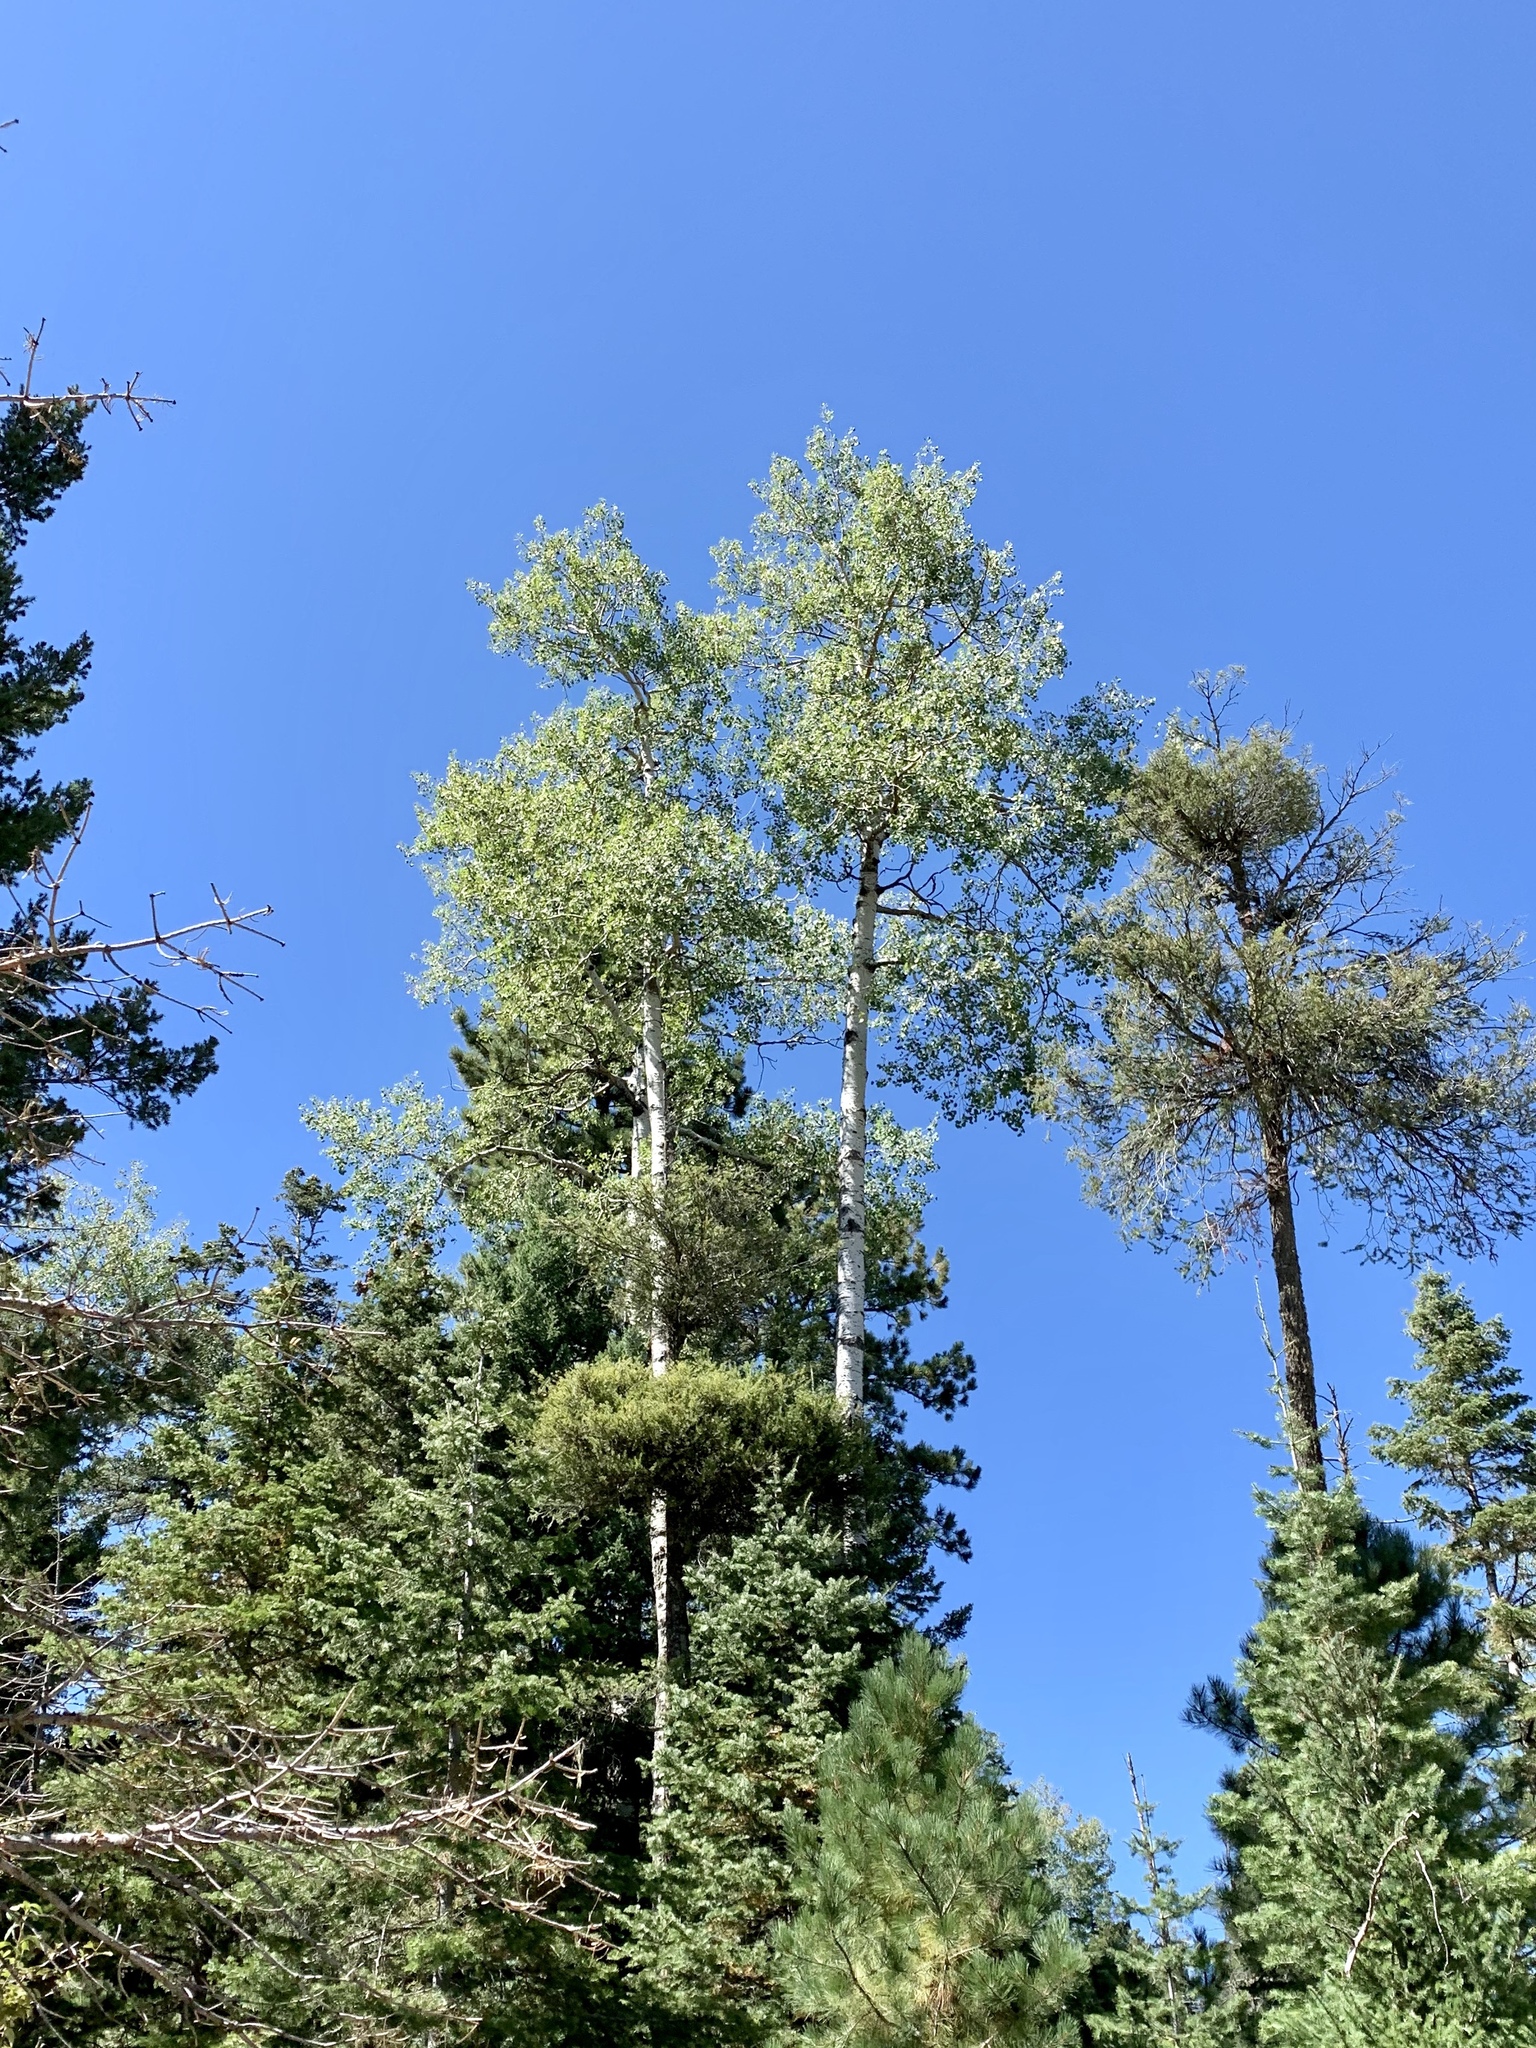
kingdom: Plantae
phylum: Tracheophyta
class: Magnoliopsida
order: Malpighiales
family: Salicaceae
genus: Populus
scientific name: Populus tremuloides
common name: Quaking aspen
